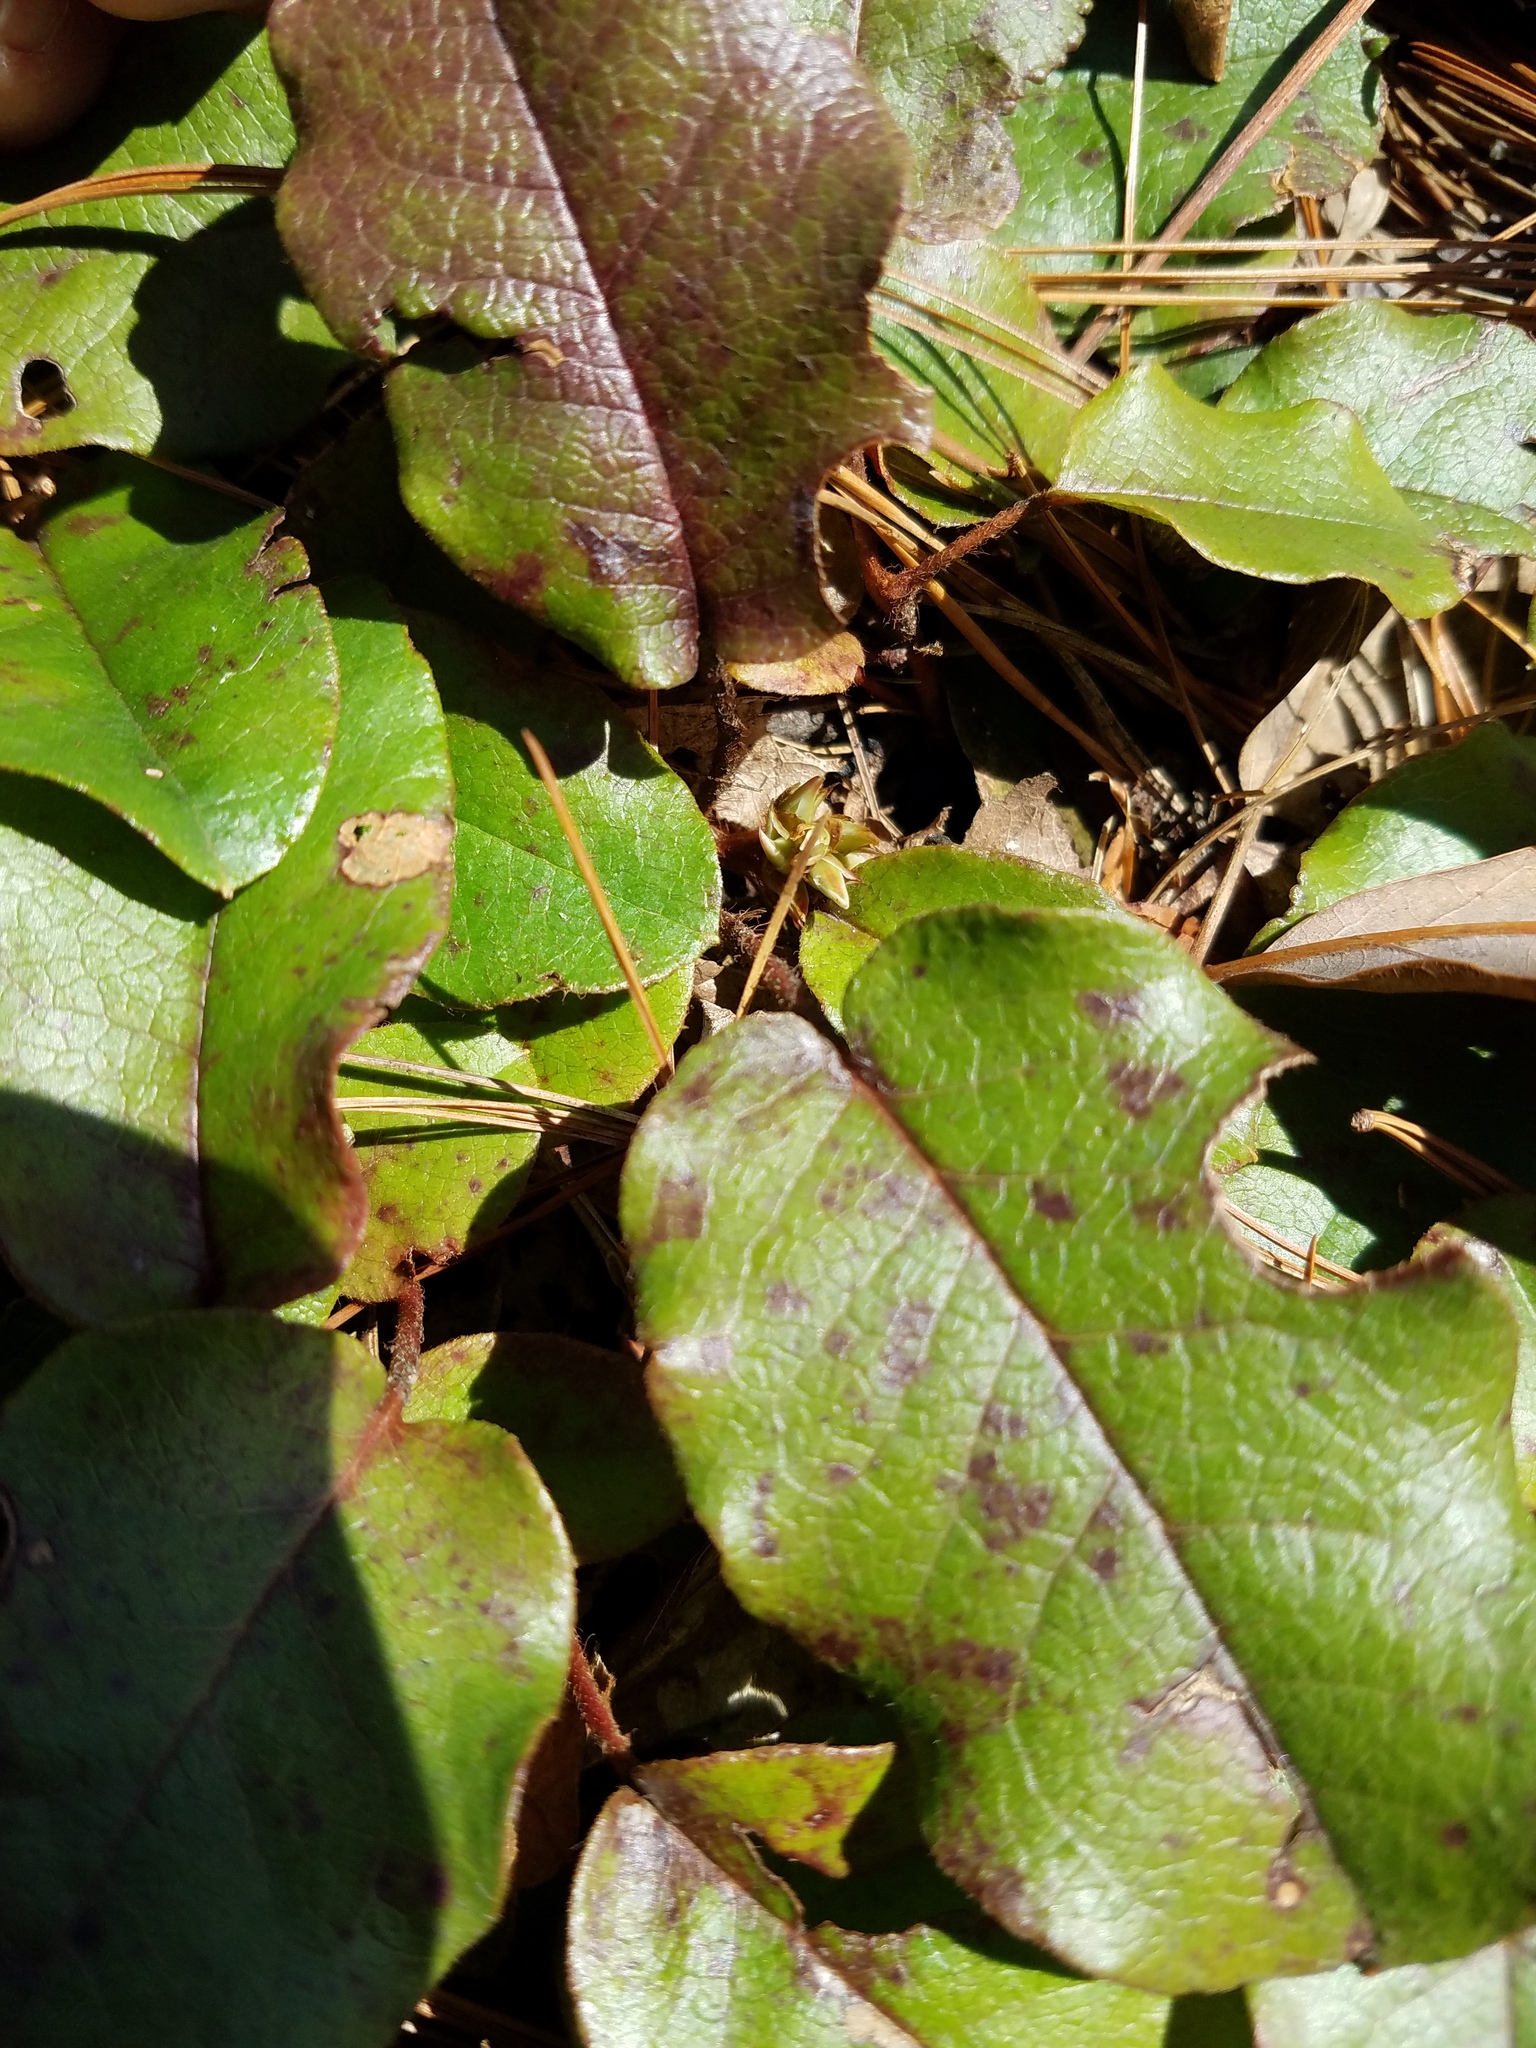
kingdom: Plantae
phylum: Tracheophyta
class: Magnoliopsida
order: Ericales
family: Ericaceae
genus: Epigaea
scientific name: Epigaea repens
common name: Gravelroot
